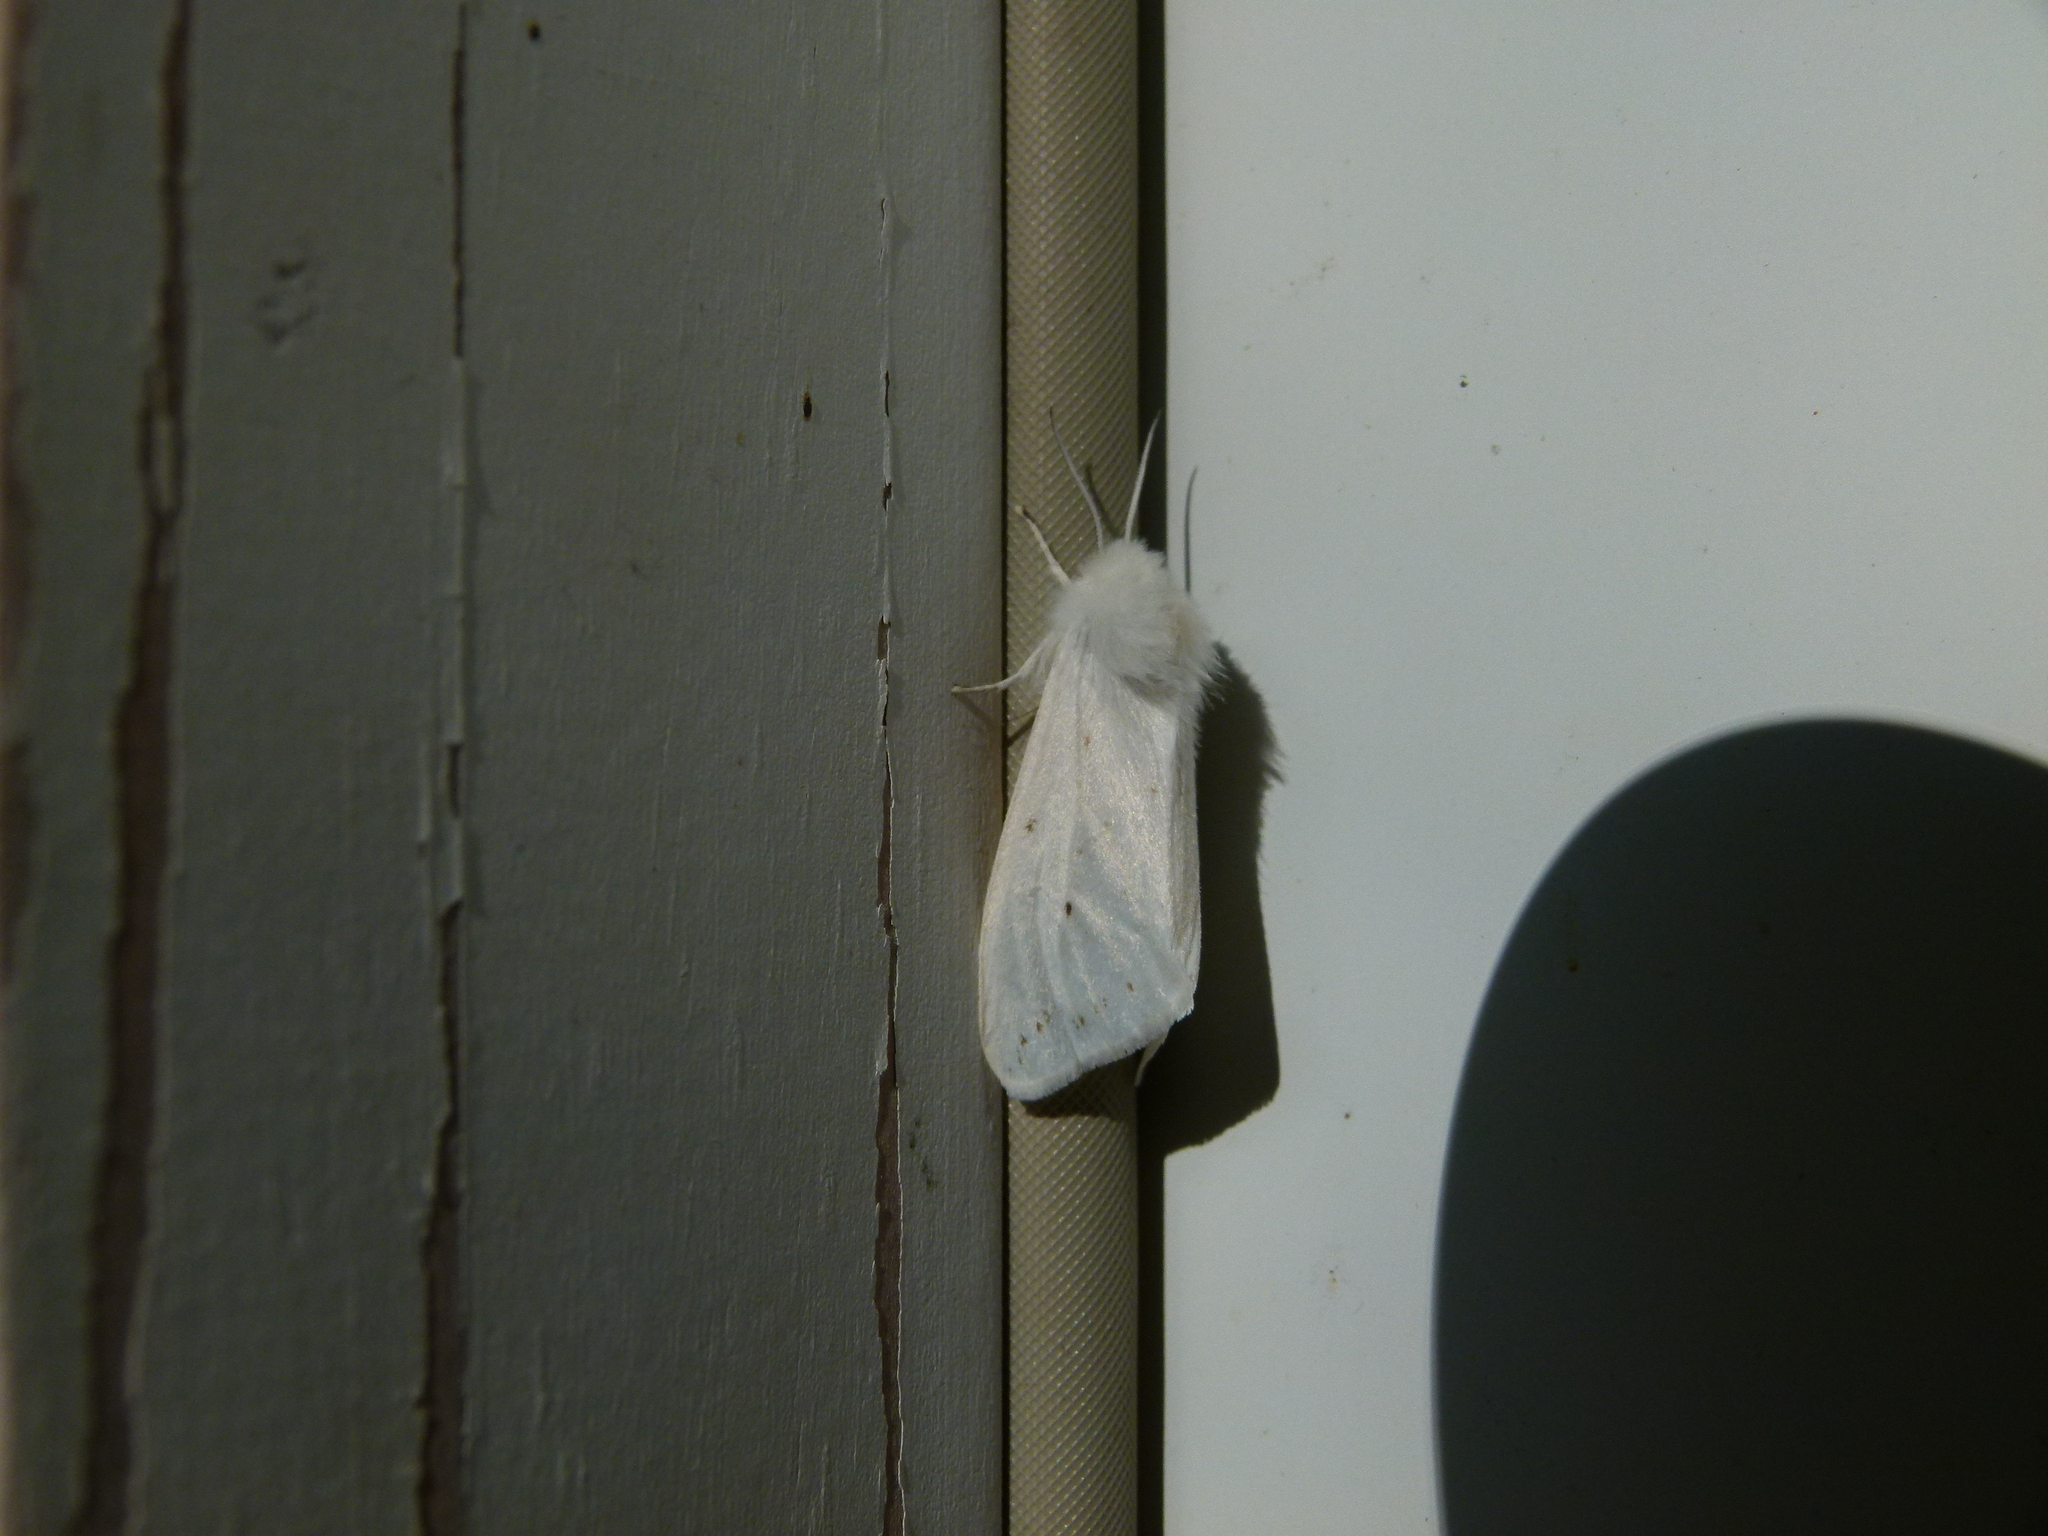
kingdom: Animalia
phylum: Arthropoda
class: Insecta
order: Lepidoptera
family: Erebidae
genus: Spilosoma
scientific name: Spilosoma virginica
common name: Virginia tiger moth
